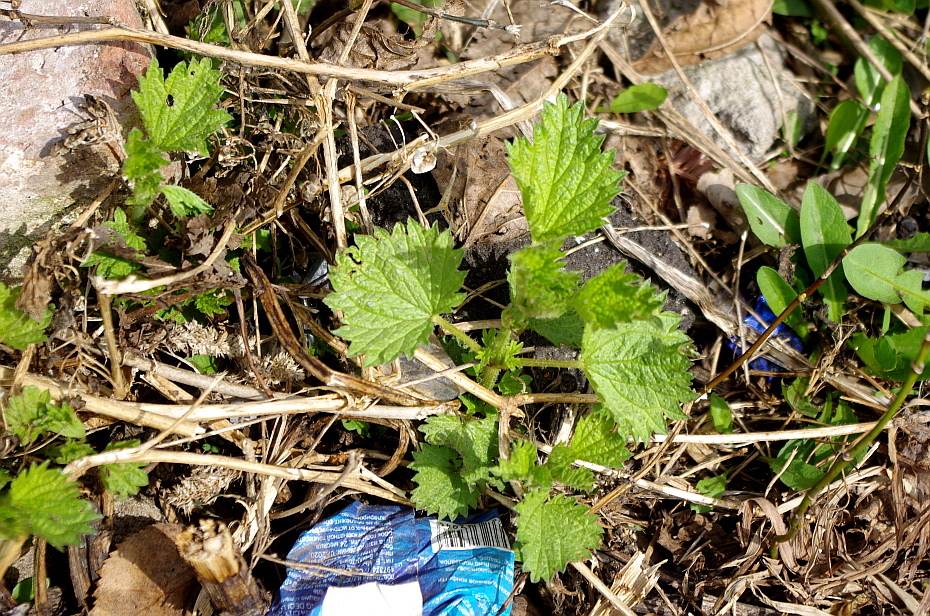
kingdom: Plantae
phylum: Tracheophyta
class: Magnoliopsida
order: Rosales
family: Urticaceae
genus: Urtica
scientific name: Urtica dioica
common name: Common nettle
